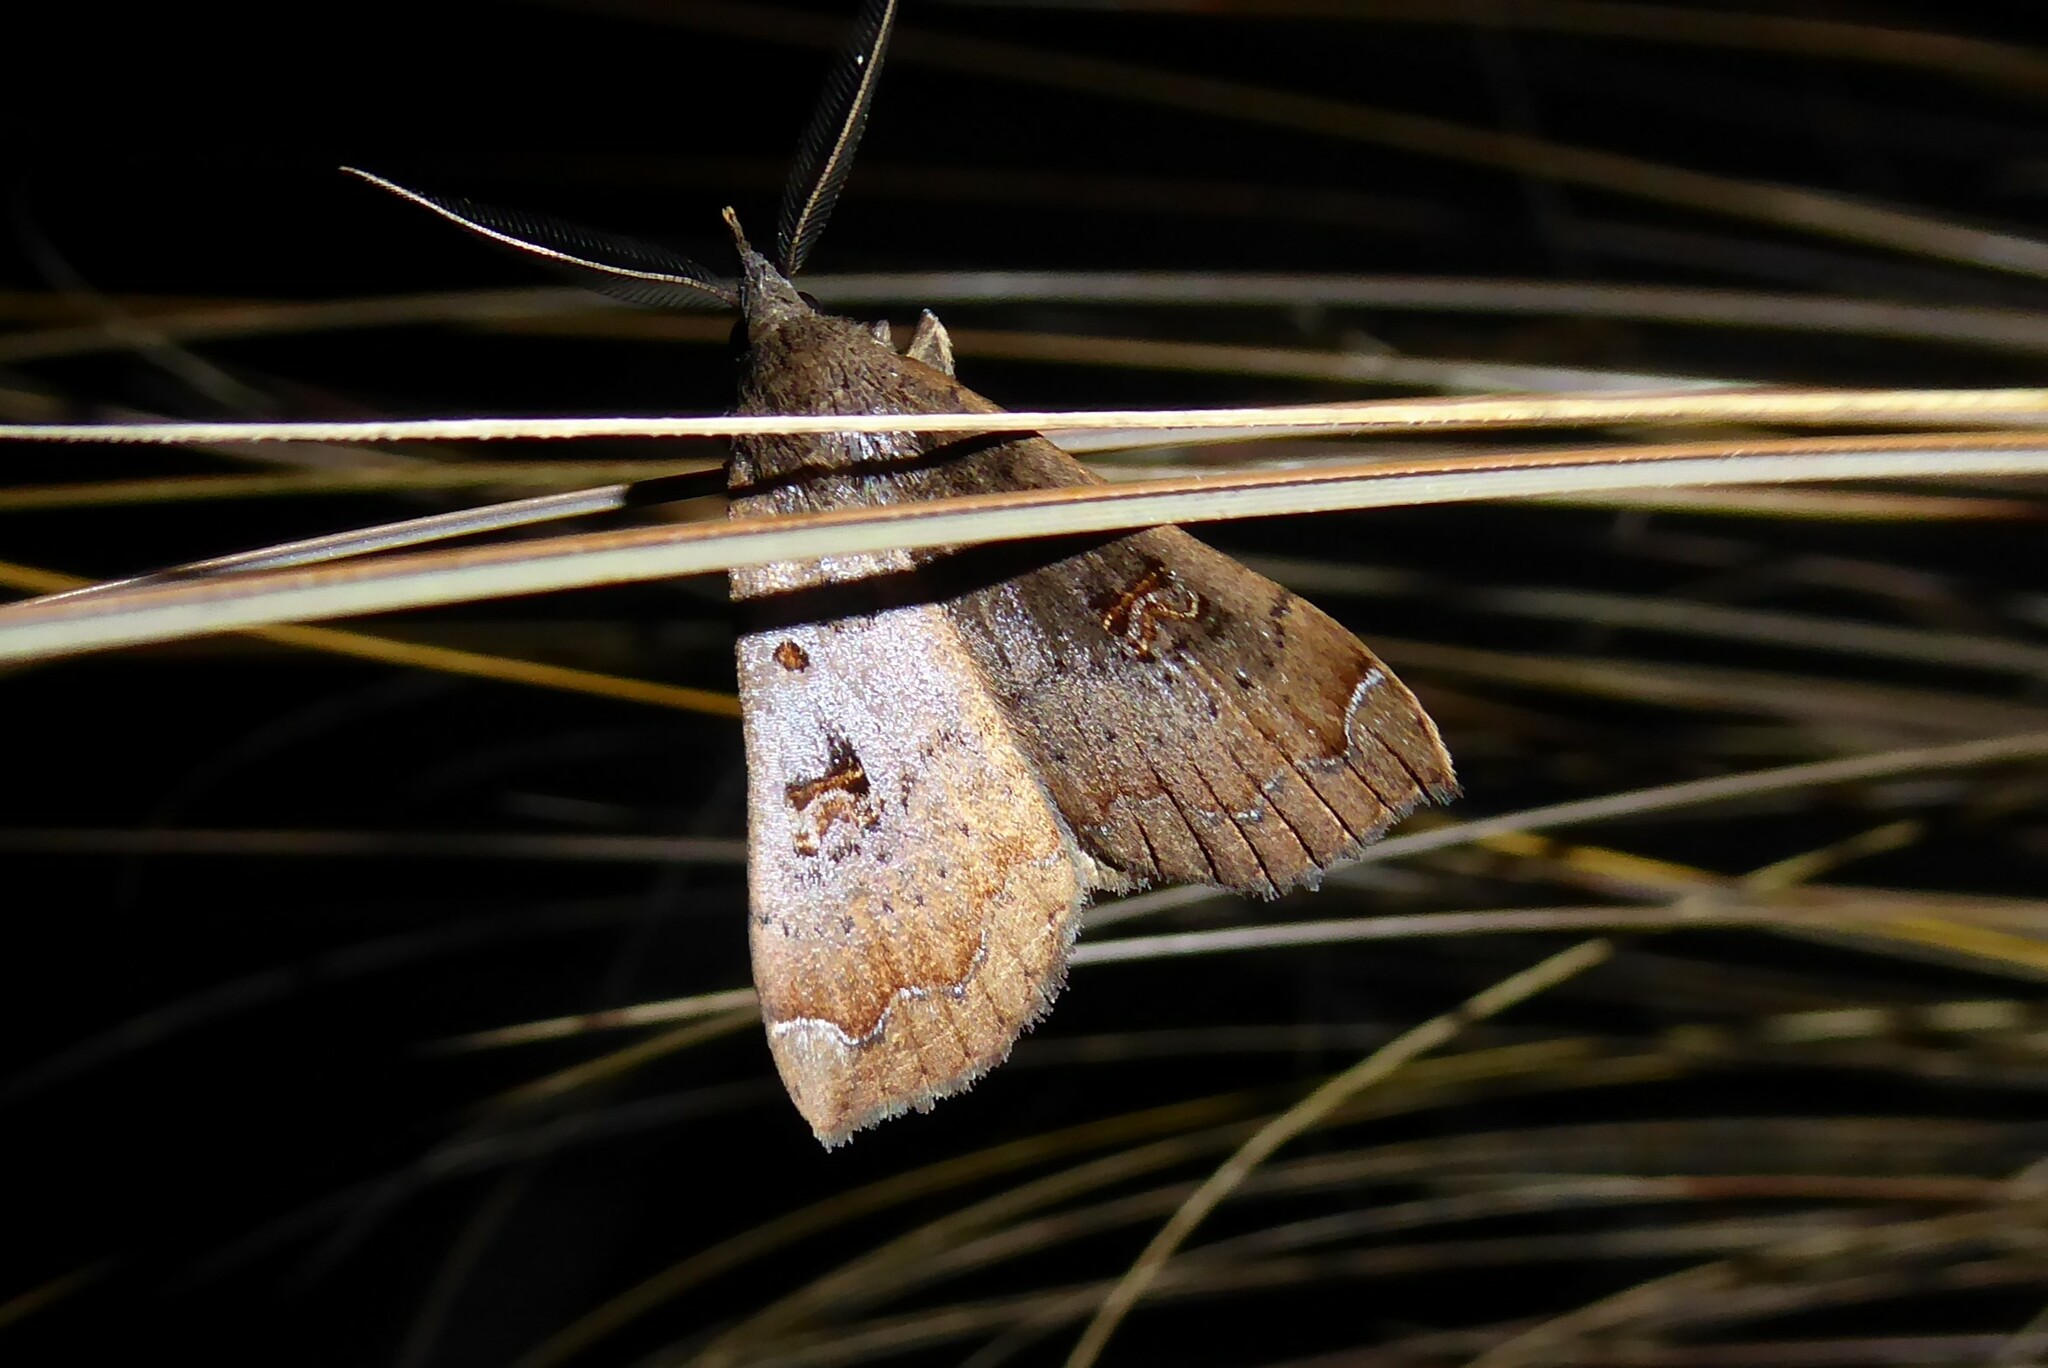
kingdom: Animalia
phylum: Arthropoda
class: Insecta
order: Lepidoptera
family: Erebidae
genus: Rhapsa
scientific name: Rhapsa scotosialis
